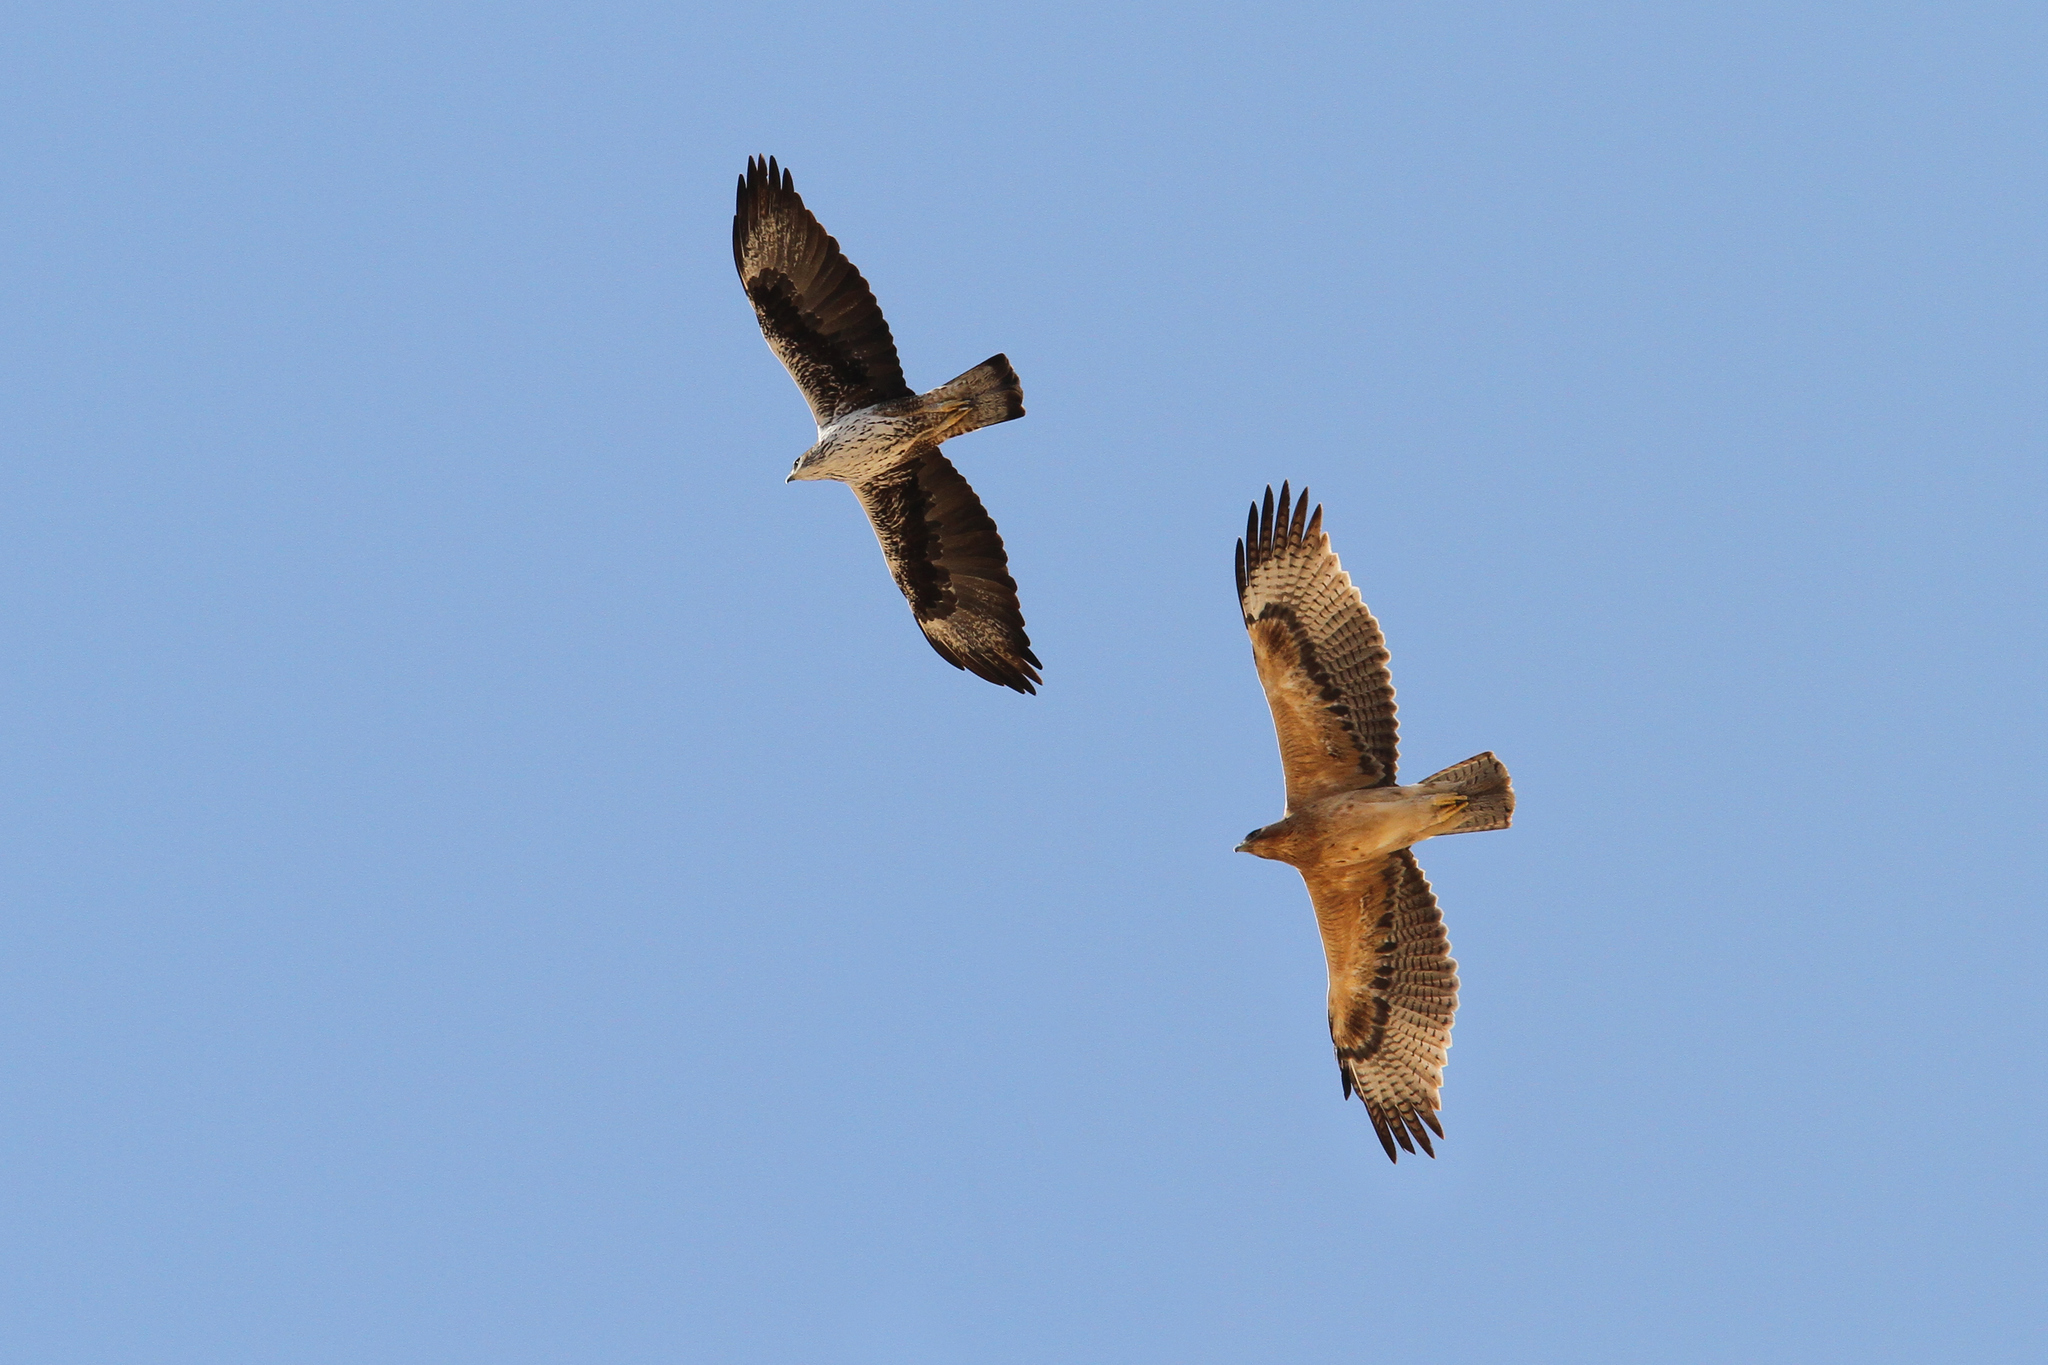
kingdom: Animalia
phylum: Chordata
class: Aves
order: Accipitriformes
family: Accipitridae
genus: Aquila
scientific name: Aquila fasciata
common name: Bonelli's eagle
